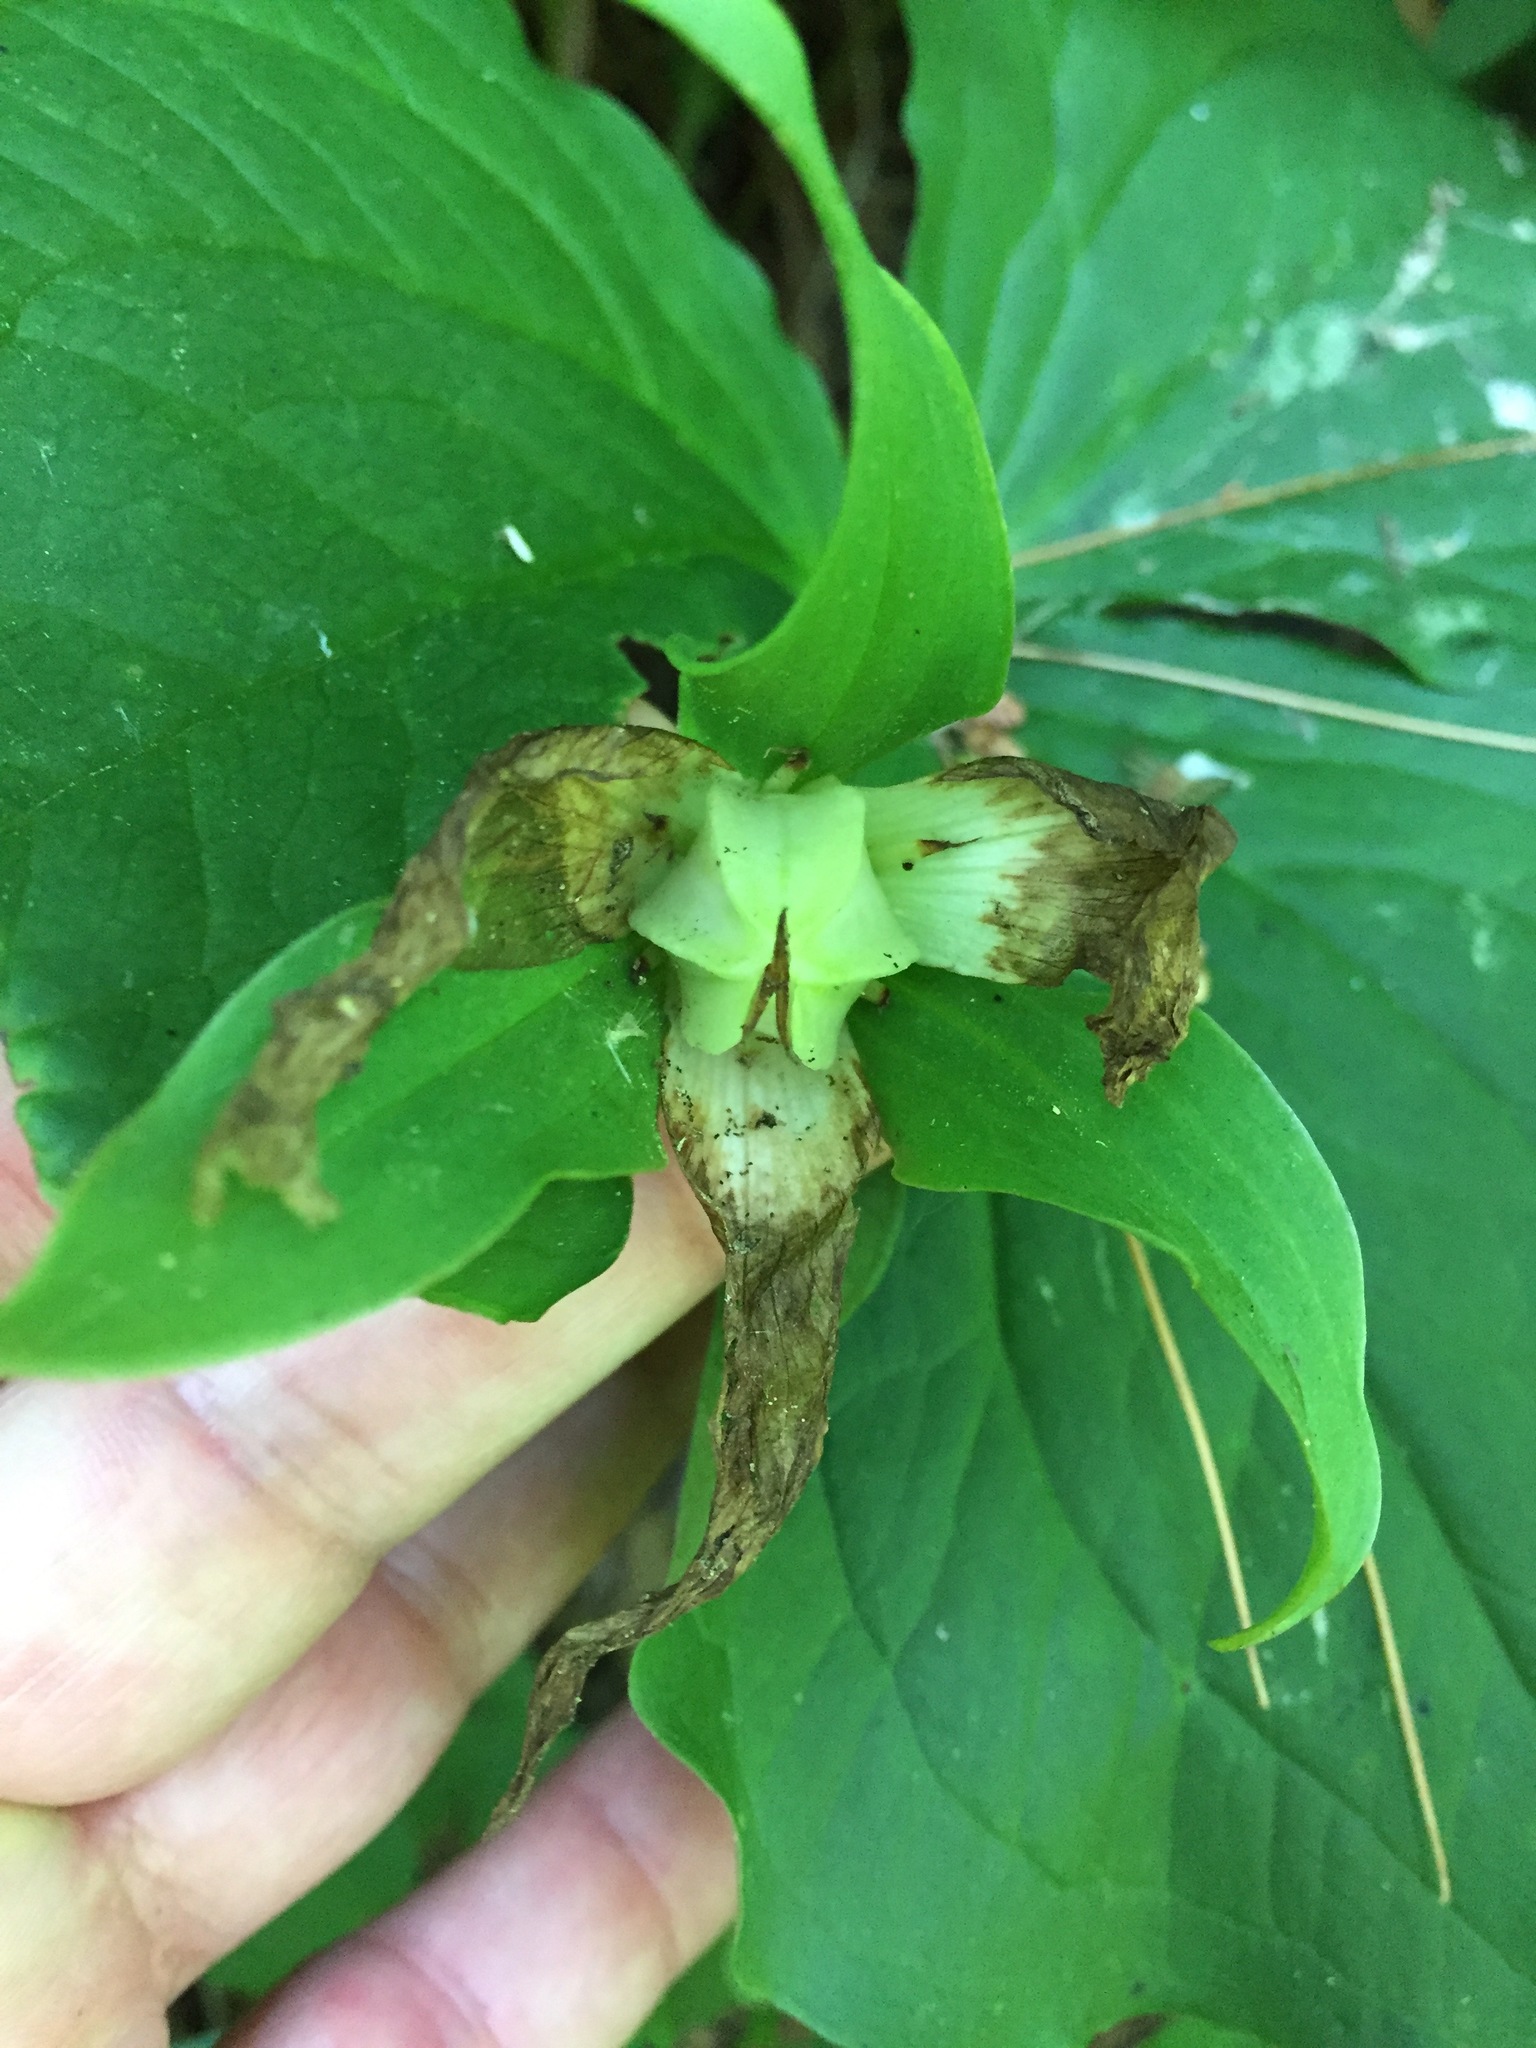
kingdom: Plantae
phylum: Tracheophyta
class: Liliopsida
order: Liliales
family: Melanthiaceae
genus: Trillium
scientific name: Trillium grandiflorum
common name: Great white trillium
